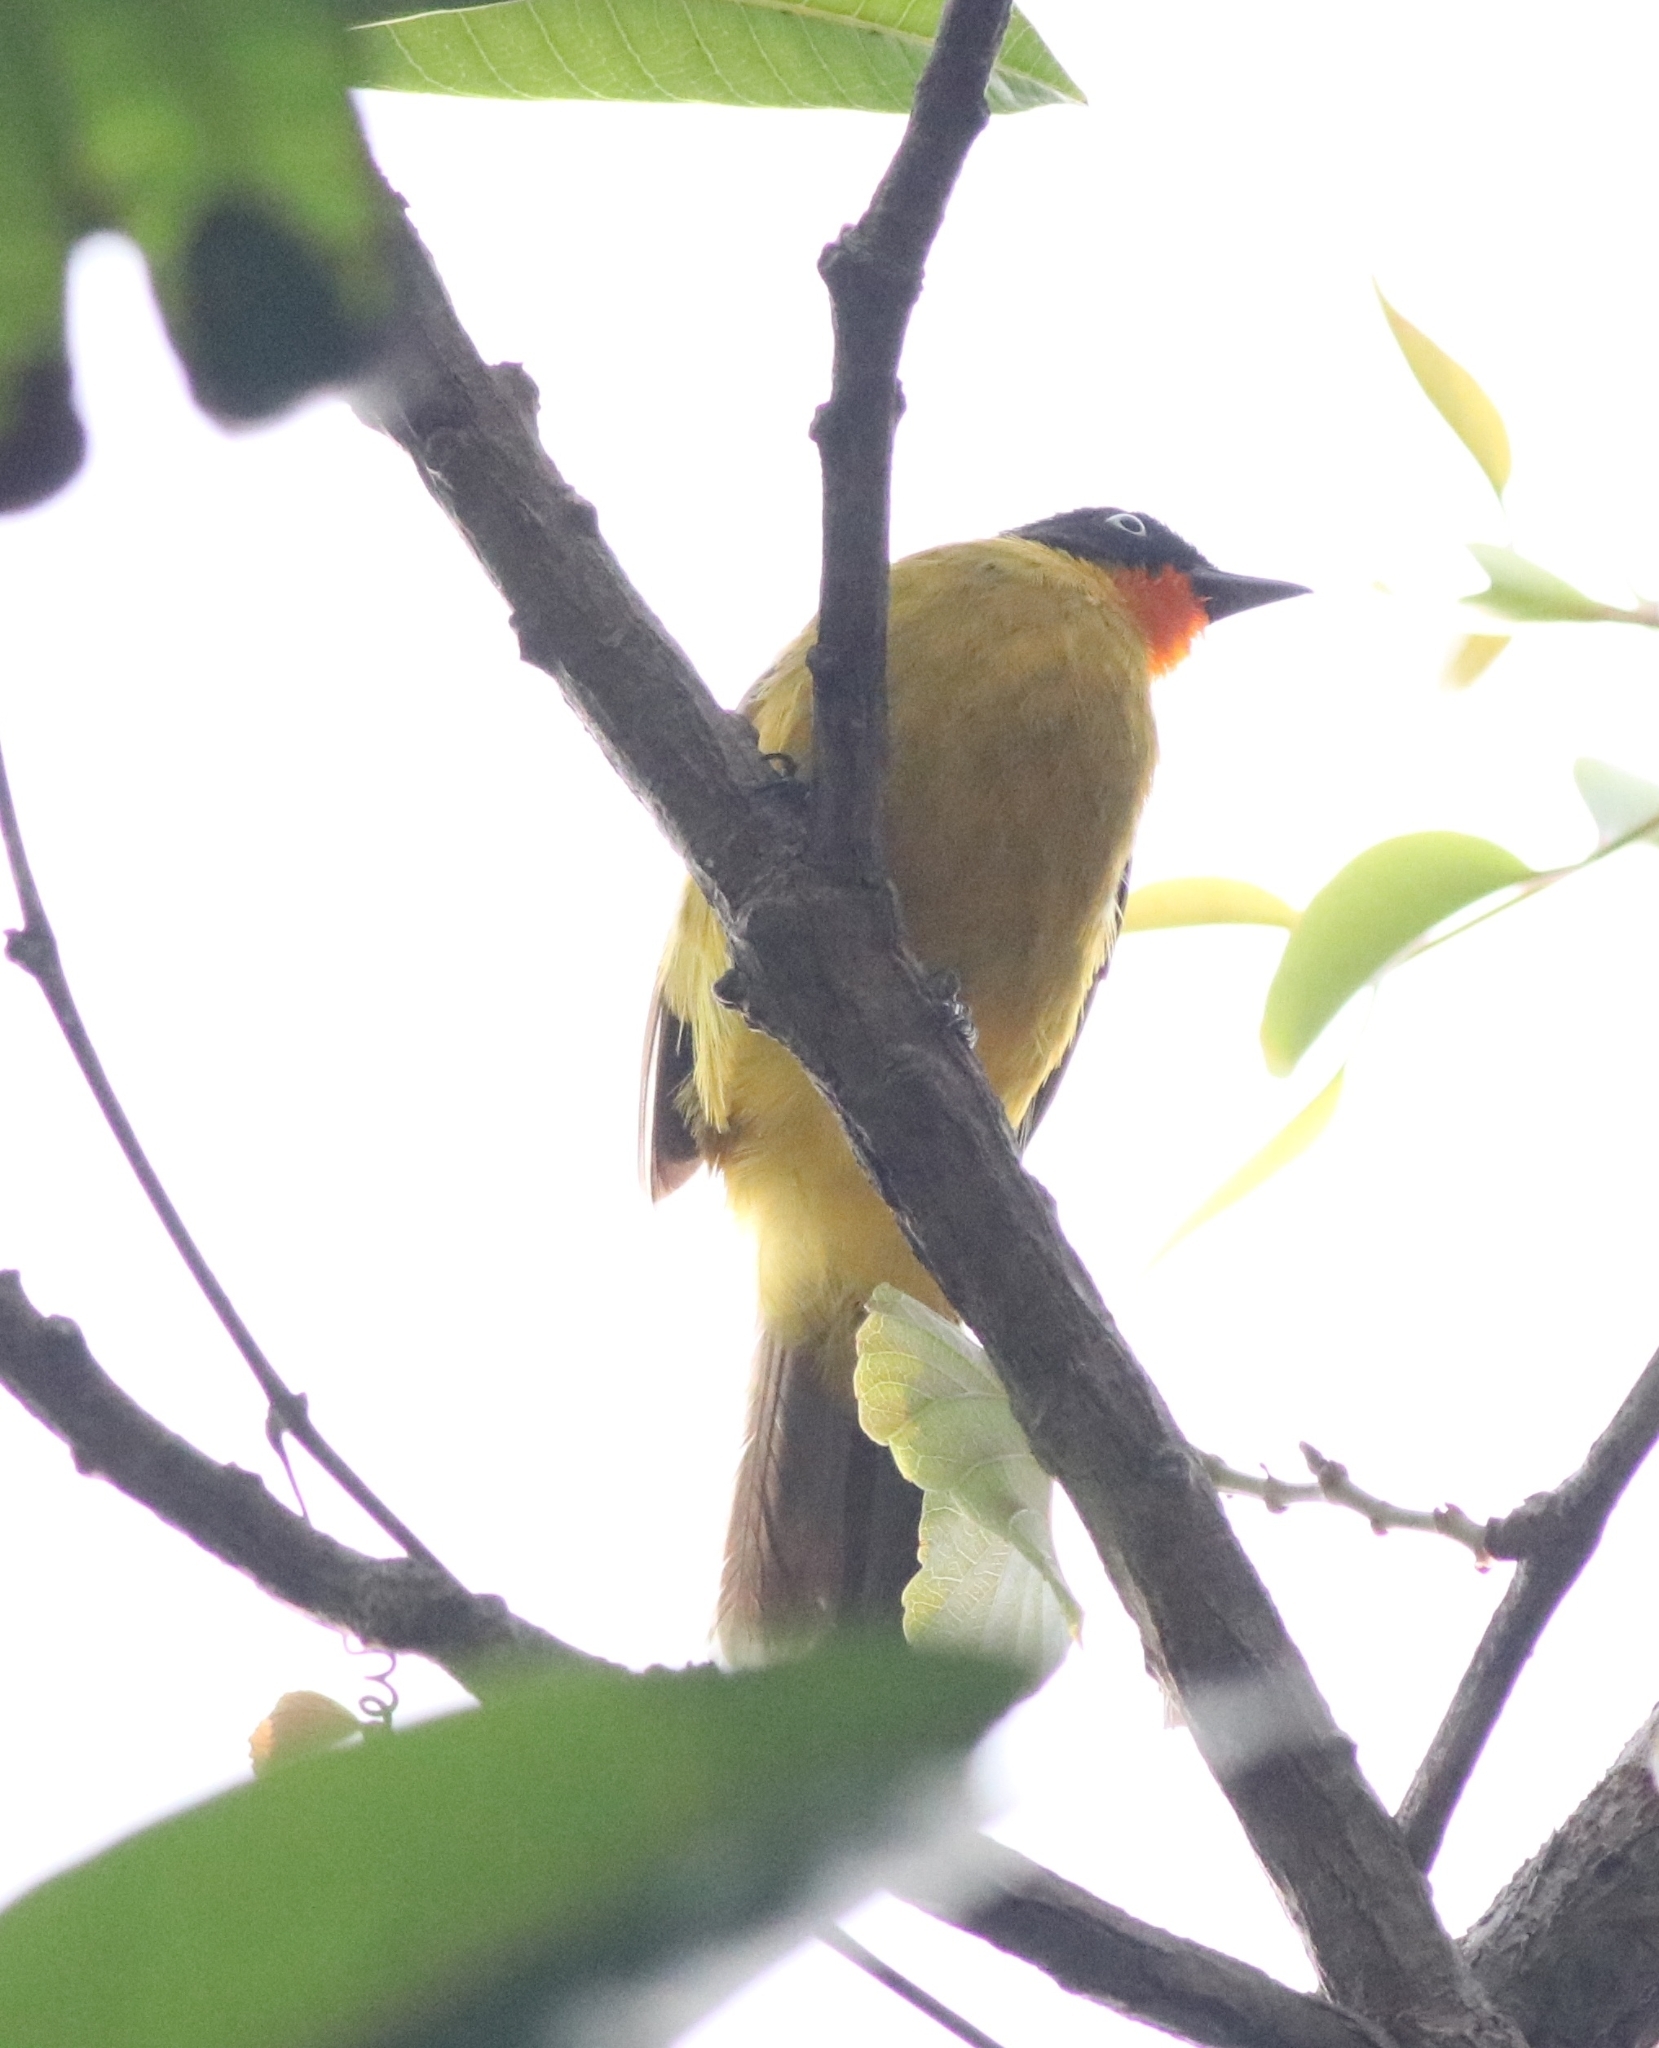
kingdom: Animalia
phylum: Chordata
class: Aves
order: Passeriformes
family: Pycnonotidae
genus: Pycnonotus
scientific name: Pycnonotus gularis
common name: Flame-throated bulbul
